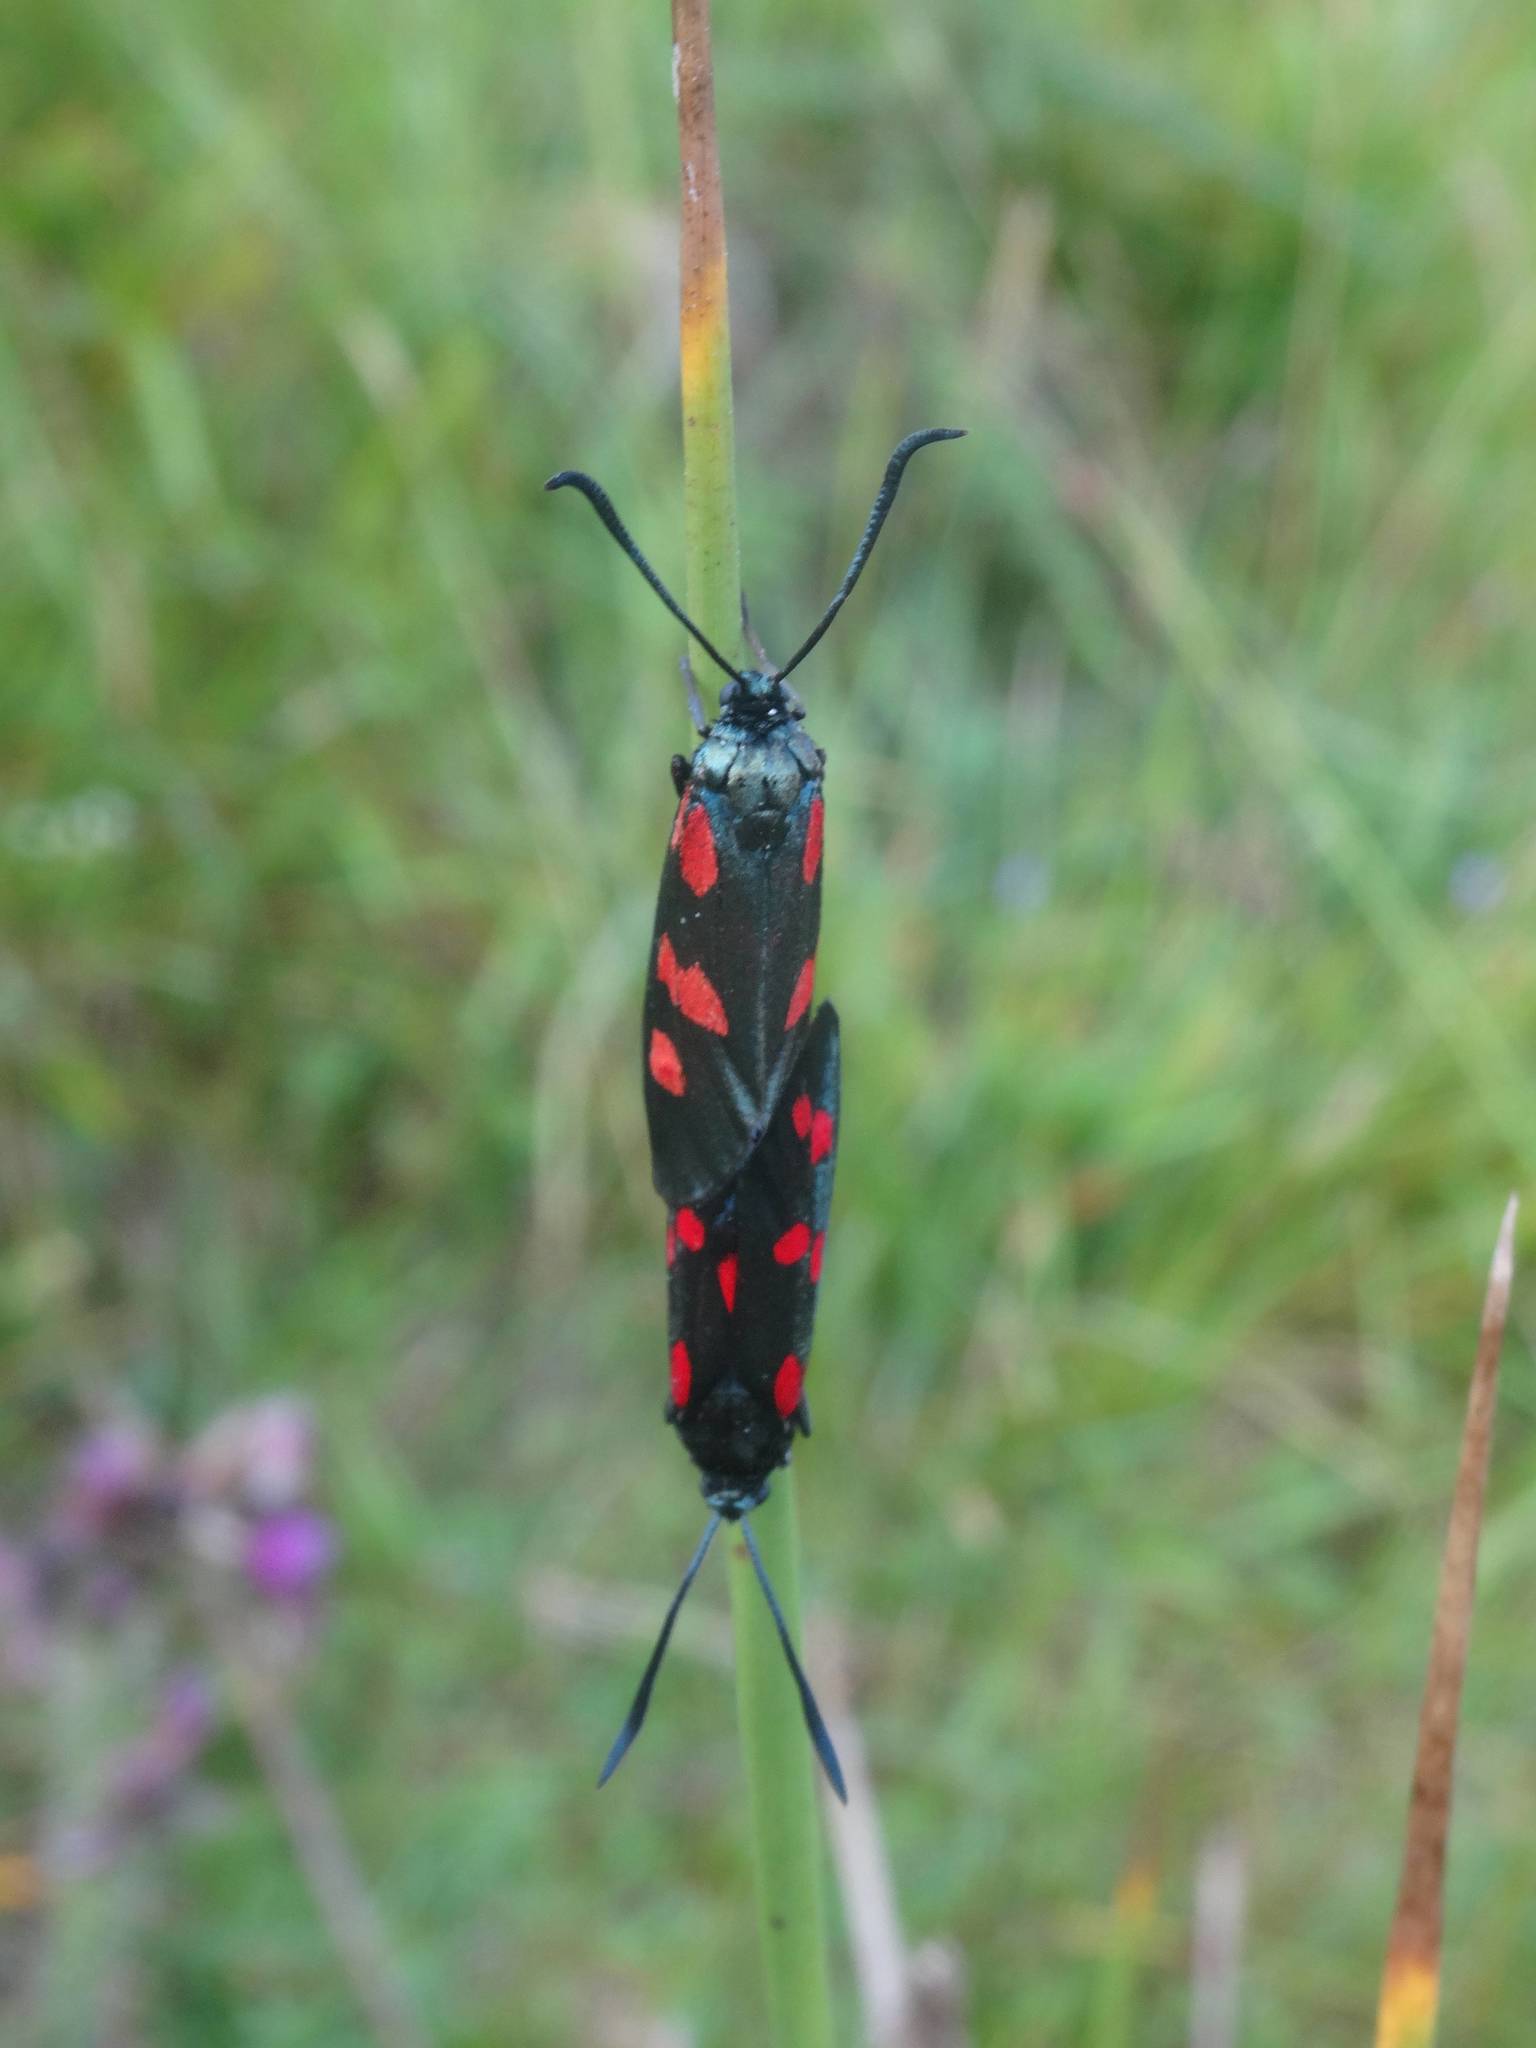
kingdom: Animalia
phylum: Arthropoda
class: Insecta
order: Lepidoptera
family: Zygaenidae
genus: Zygaena
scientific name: Zygaena trifolii
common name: Five-spot burnet
